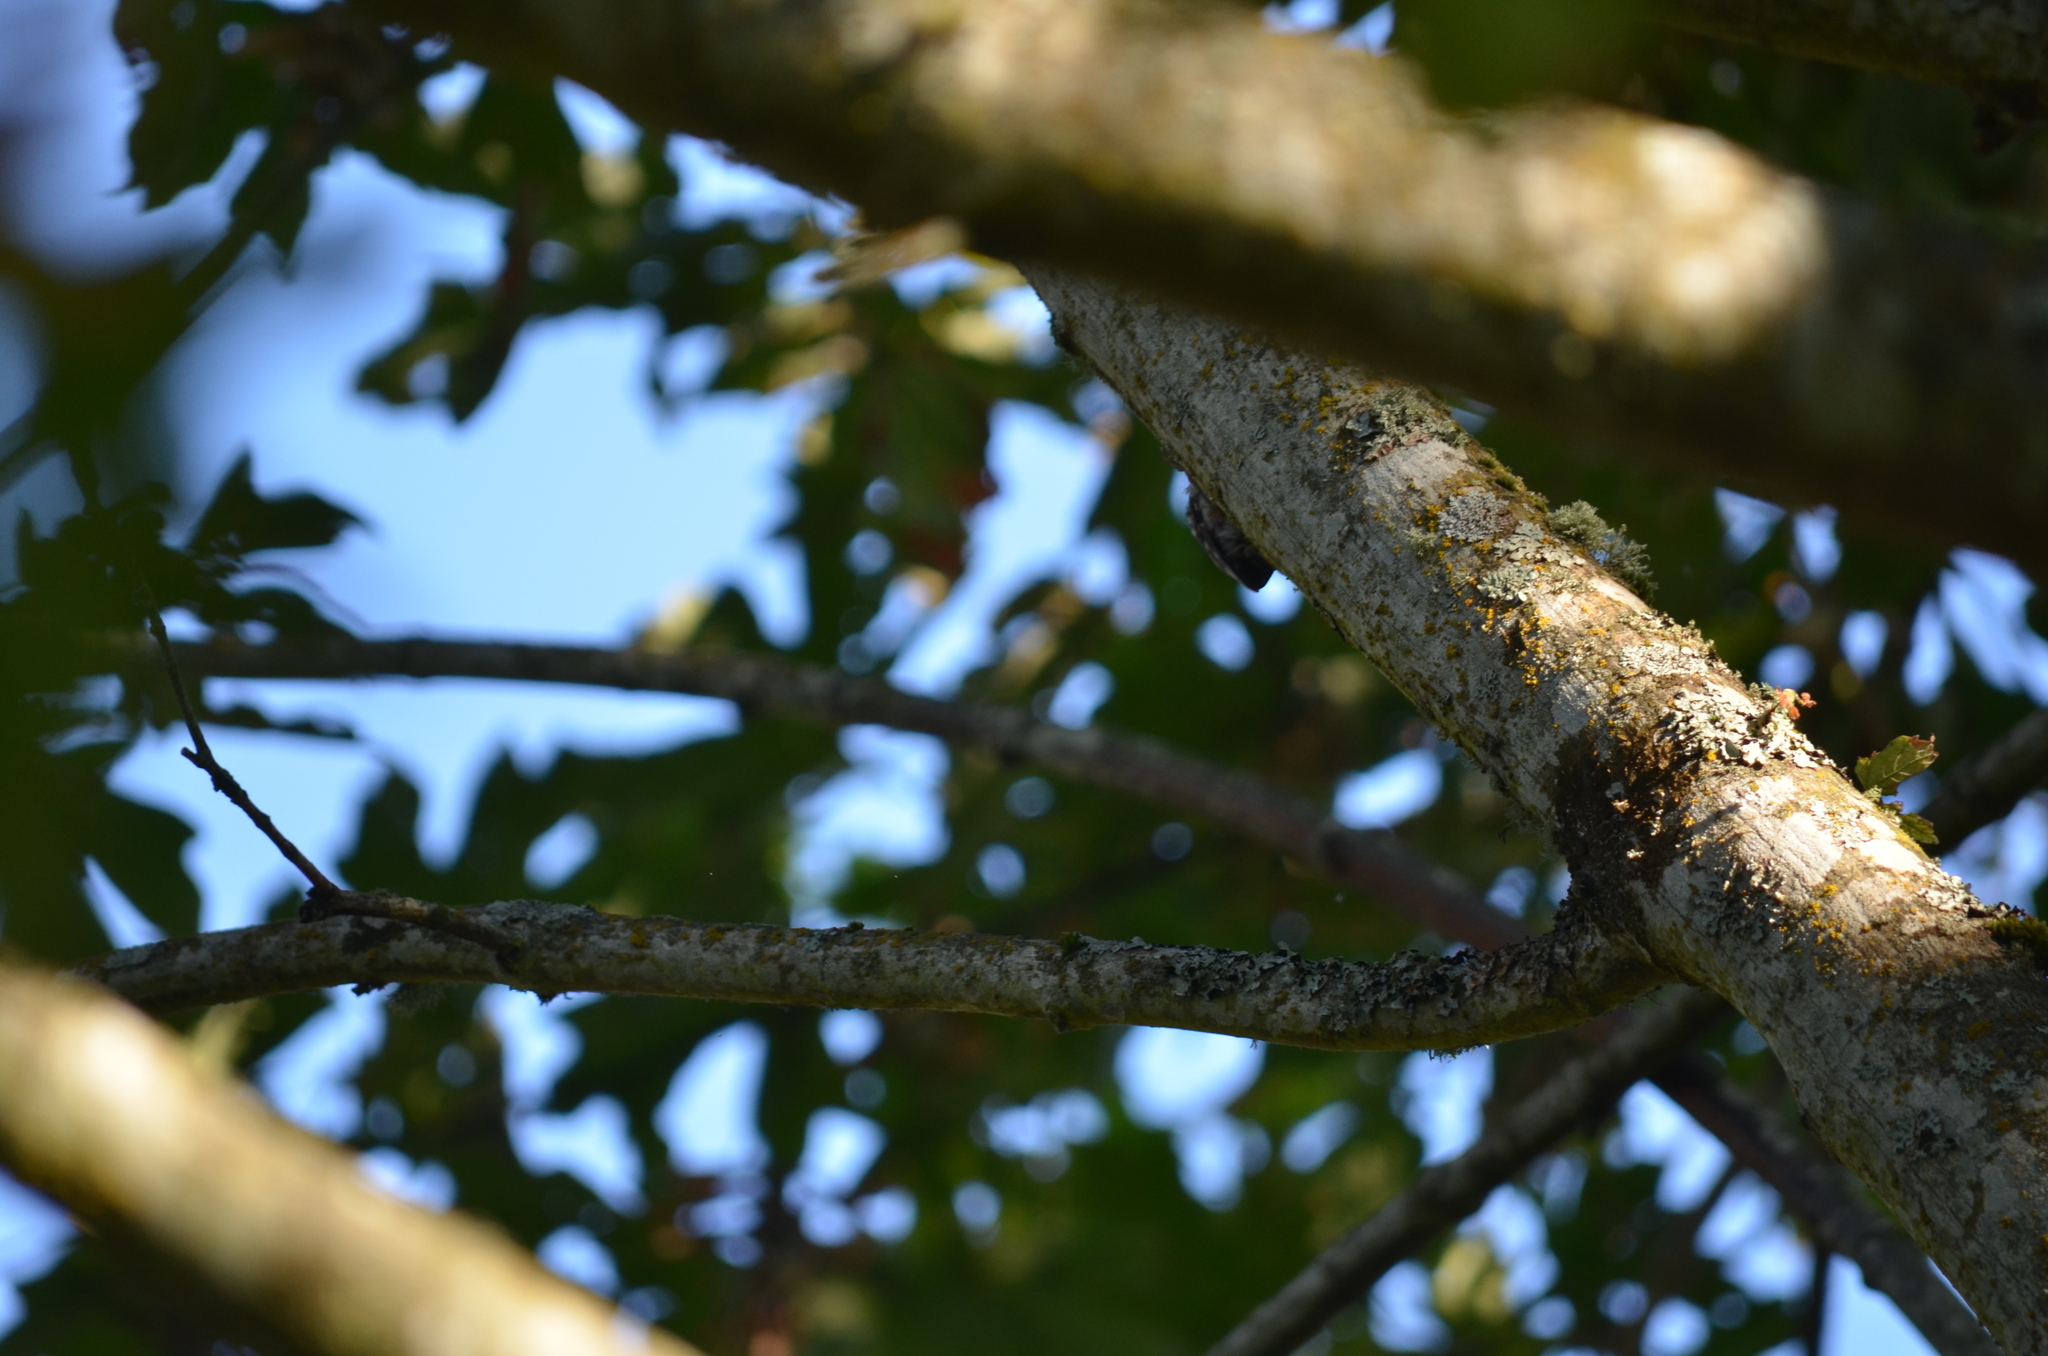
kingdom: Animalia
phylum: Chordata
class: Aves
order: Passeriformes
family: Certhiidae
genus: Certhia
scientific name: Certhia americana
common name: Brown creeper
